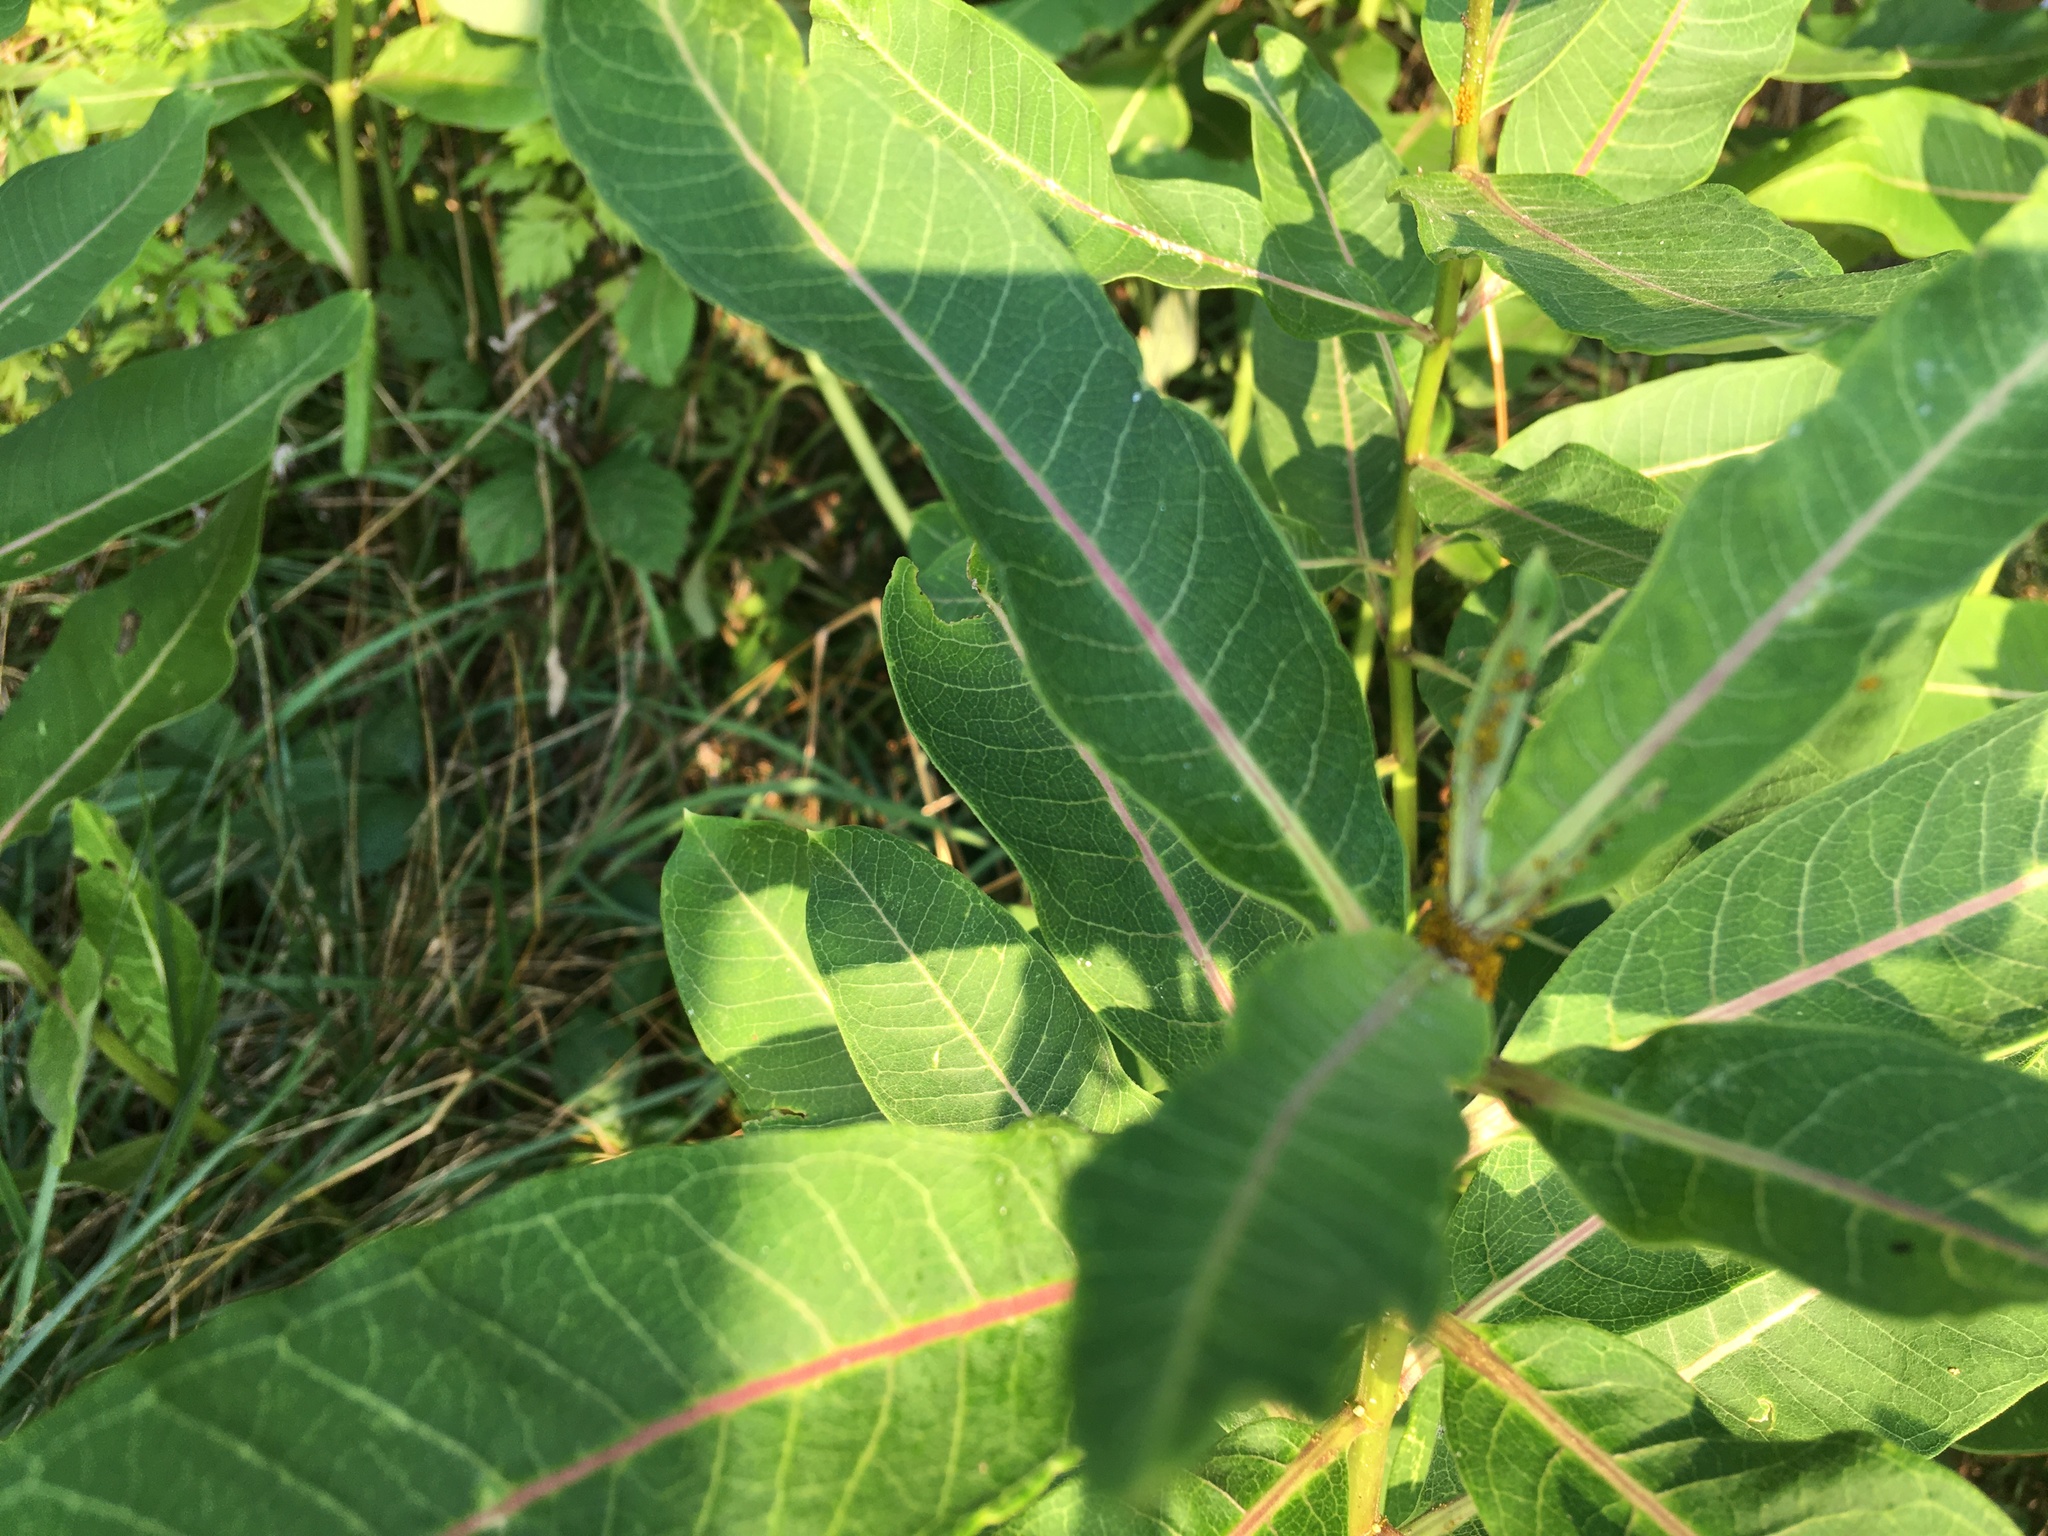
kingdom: Plantae
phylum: Tracheophyta
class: Magnoliopsida
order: Gentianales
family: Apocynaceae
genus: Asclepias
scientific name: Asclepias syriaca
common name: Common milkweed
